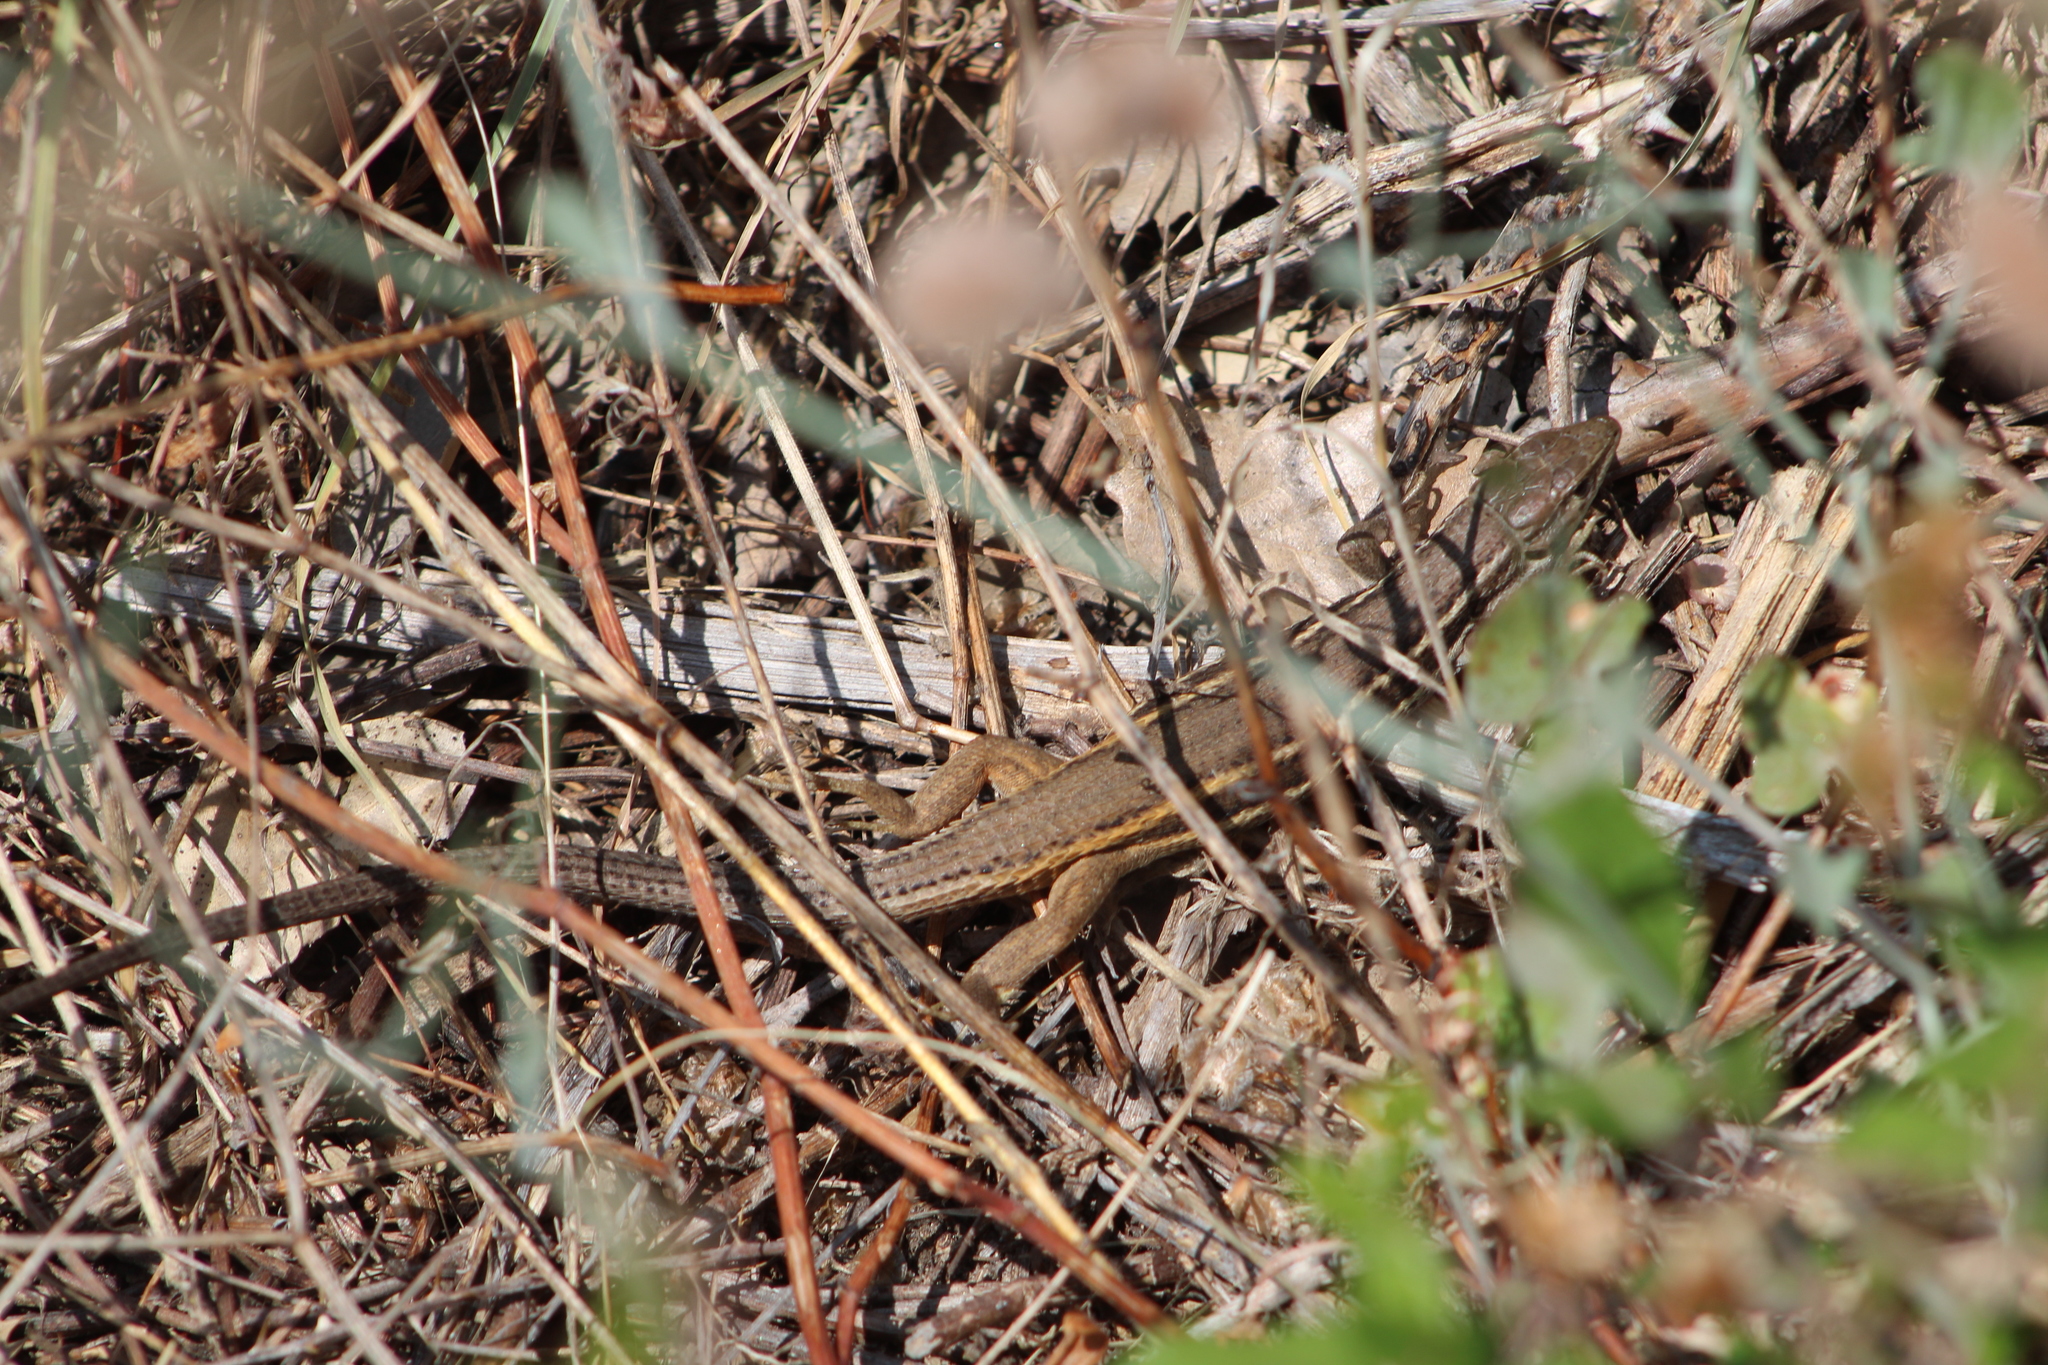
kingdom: Animalia
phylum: Chordata
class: Squamata
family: Lacertidae
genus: Psammodromus
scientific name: Psammodromus algirus
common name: Algerian psammodromus
